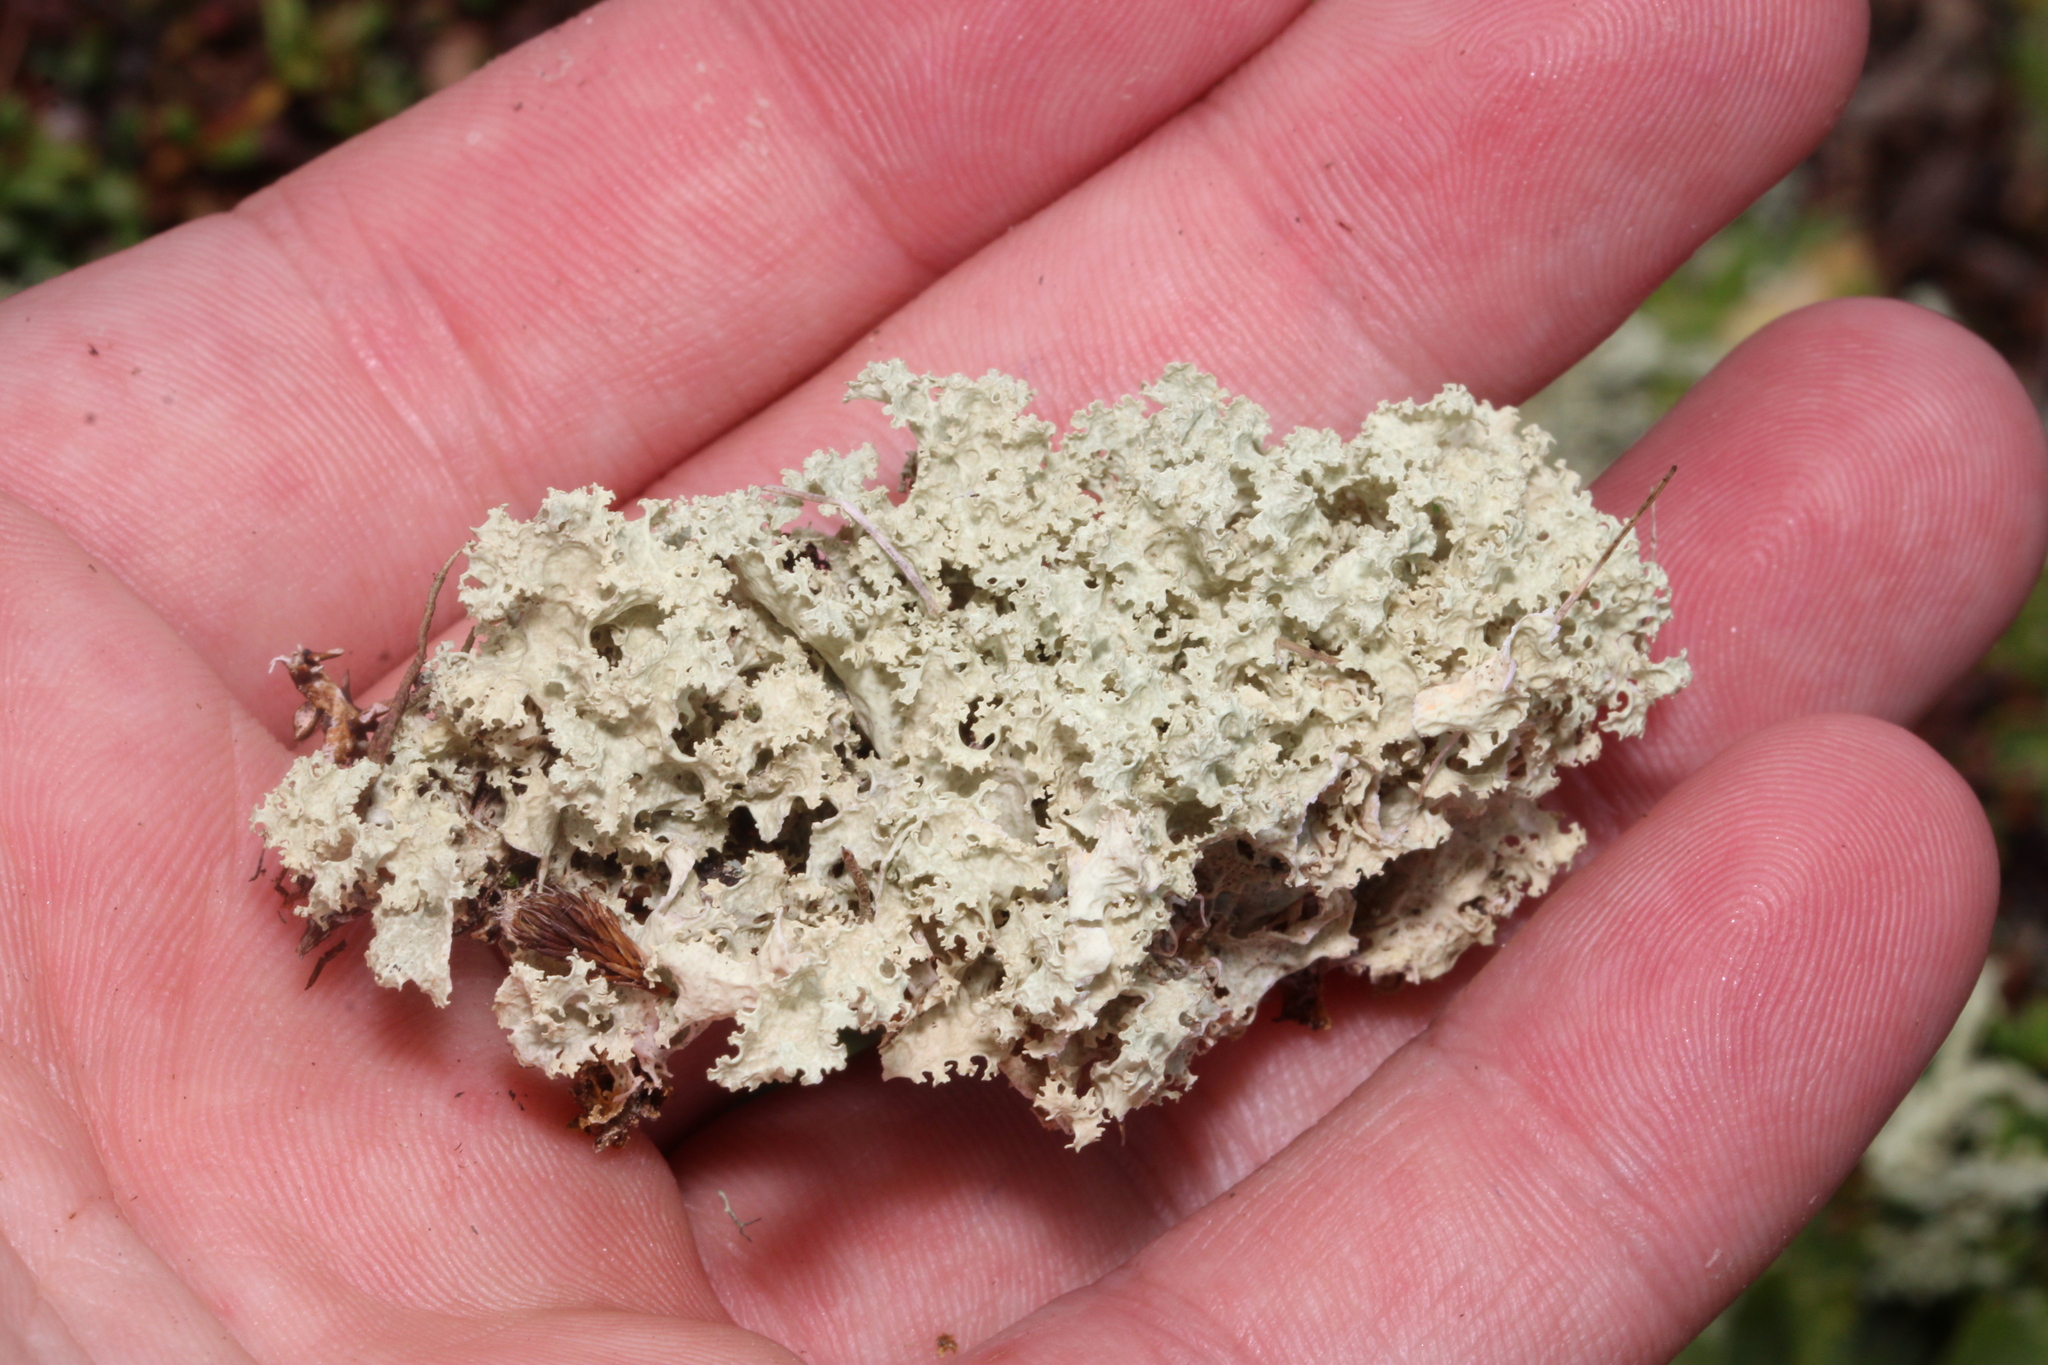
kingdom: Fungi
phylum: Ascomycota
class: Lecanoromycetes
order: Lecanorales
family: Parmeliaceae
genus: Nephromopsis
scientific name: Nephromopsis nivalis
